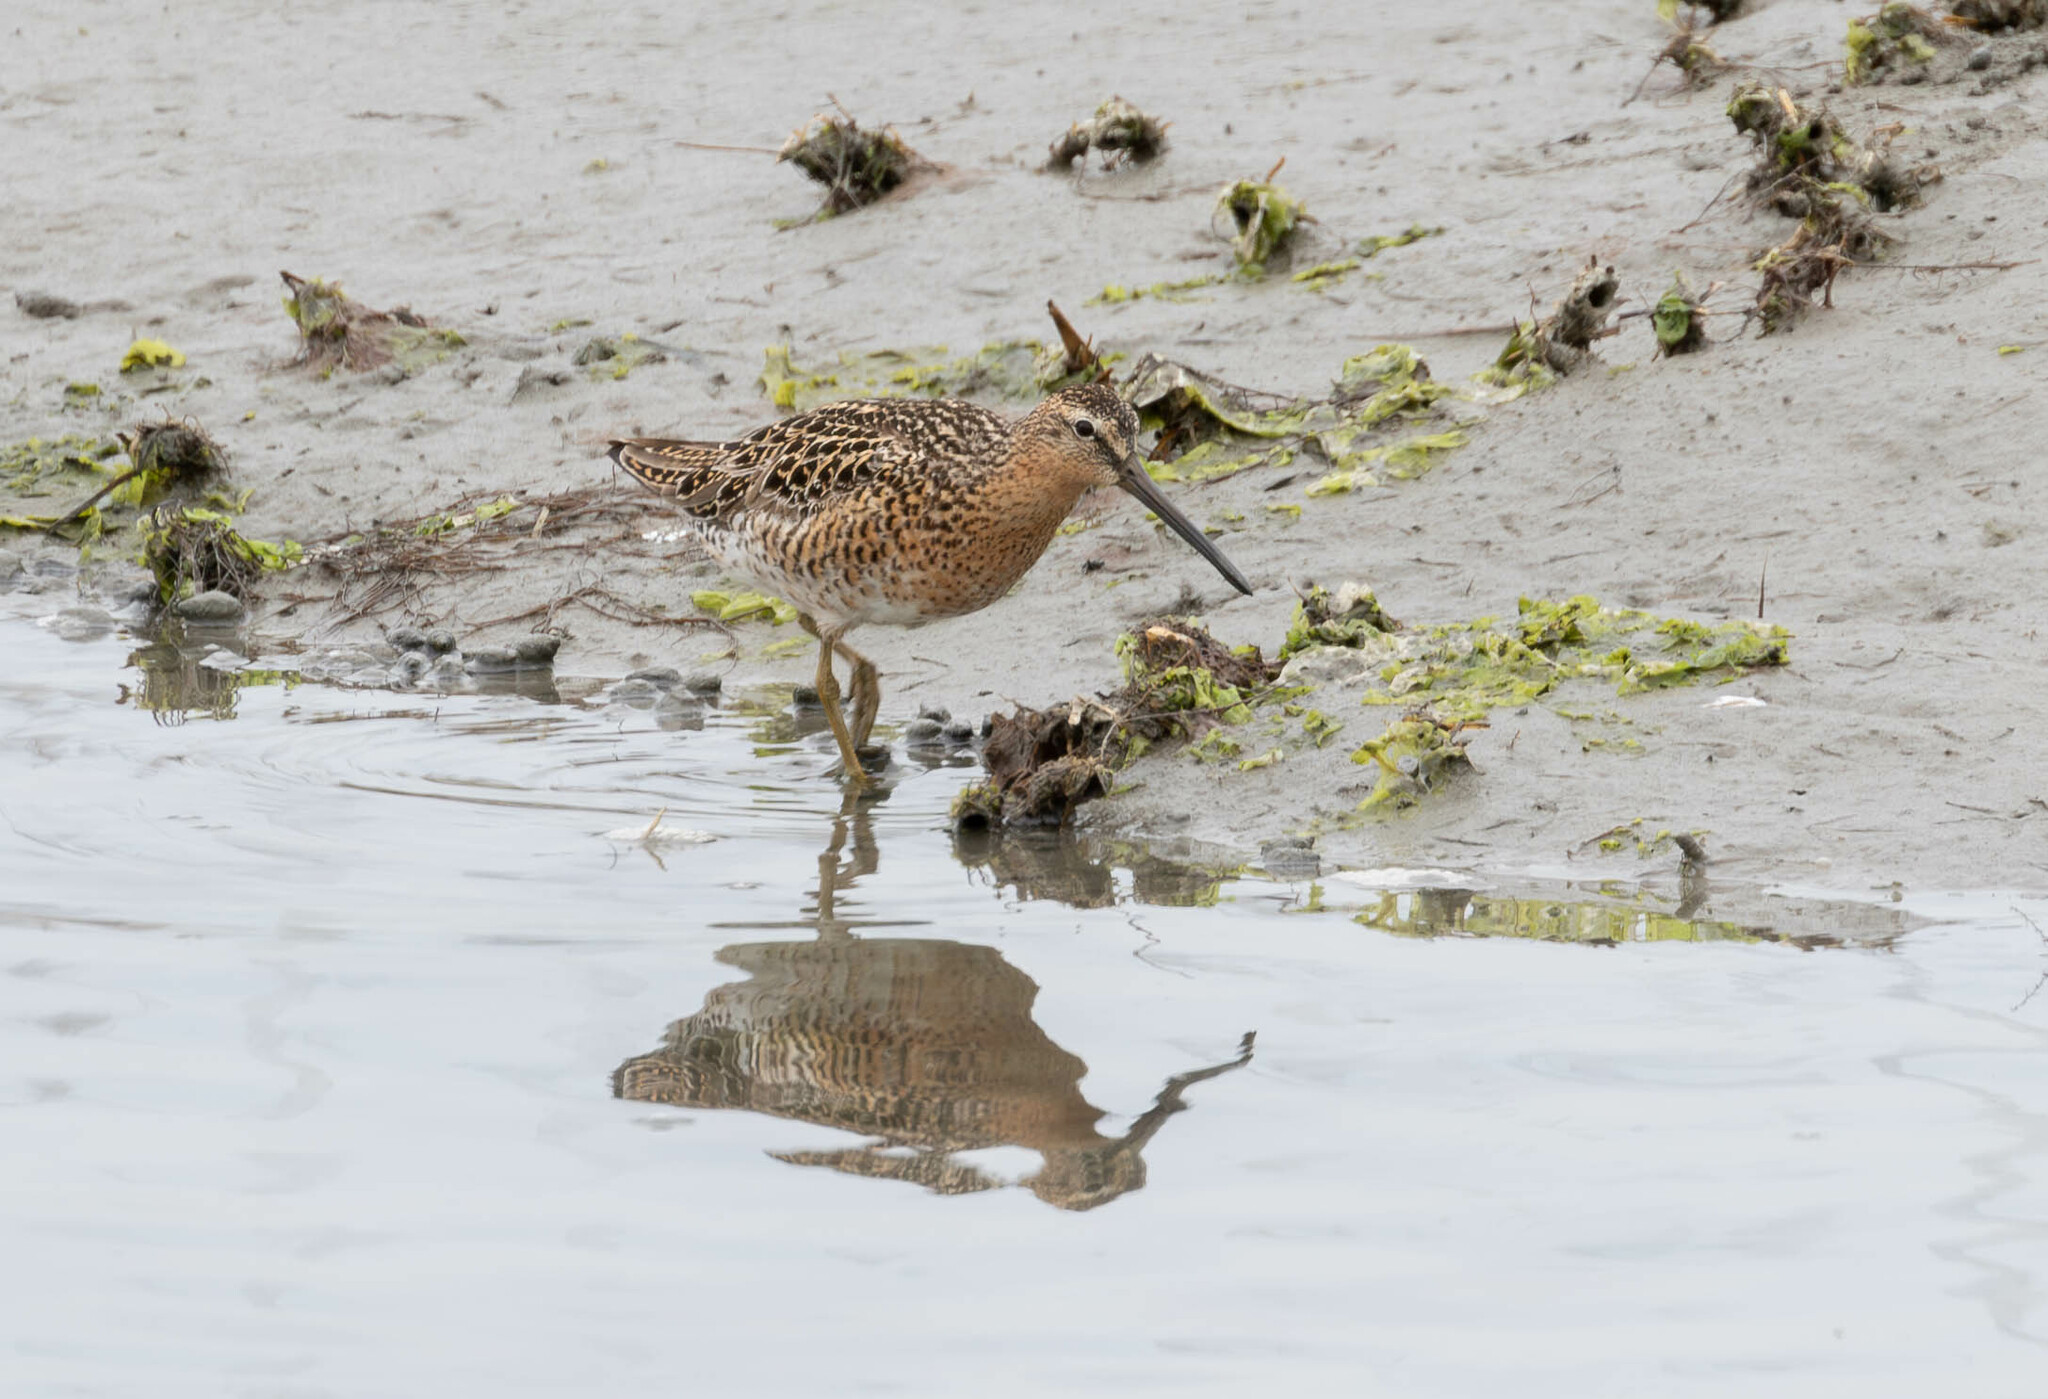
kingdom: Animalia
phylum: Chordata
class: Aves
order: Charadriiformes
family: Scolopacidae
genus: Limnodromus
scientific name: Limnodromus griseus
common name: Short-billed dowitcher
